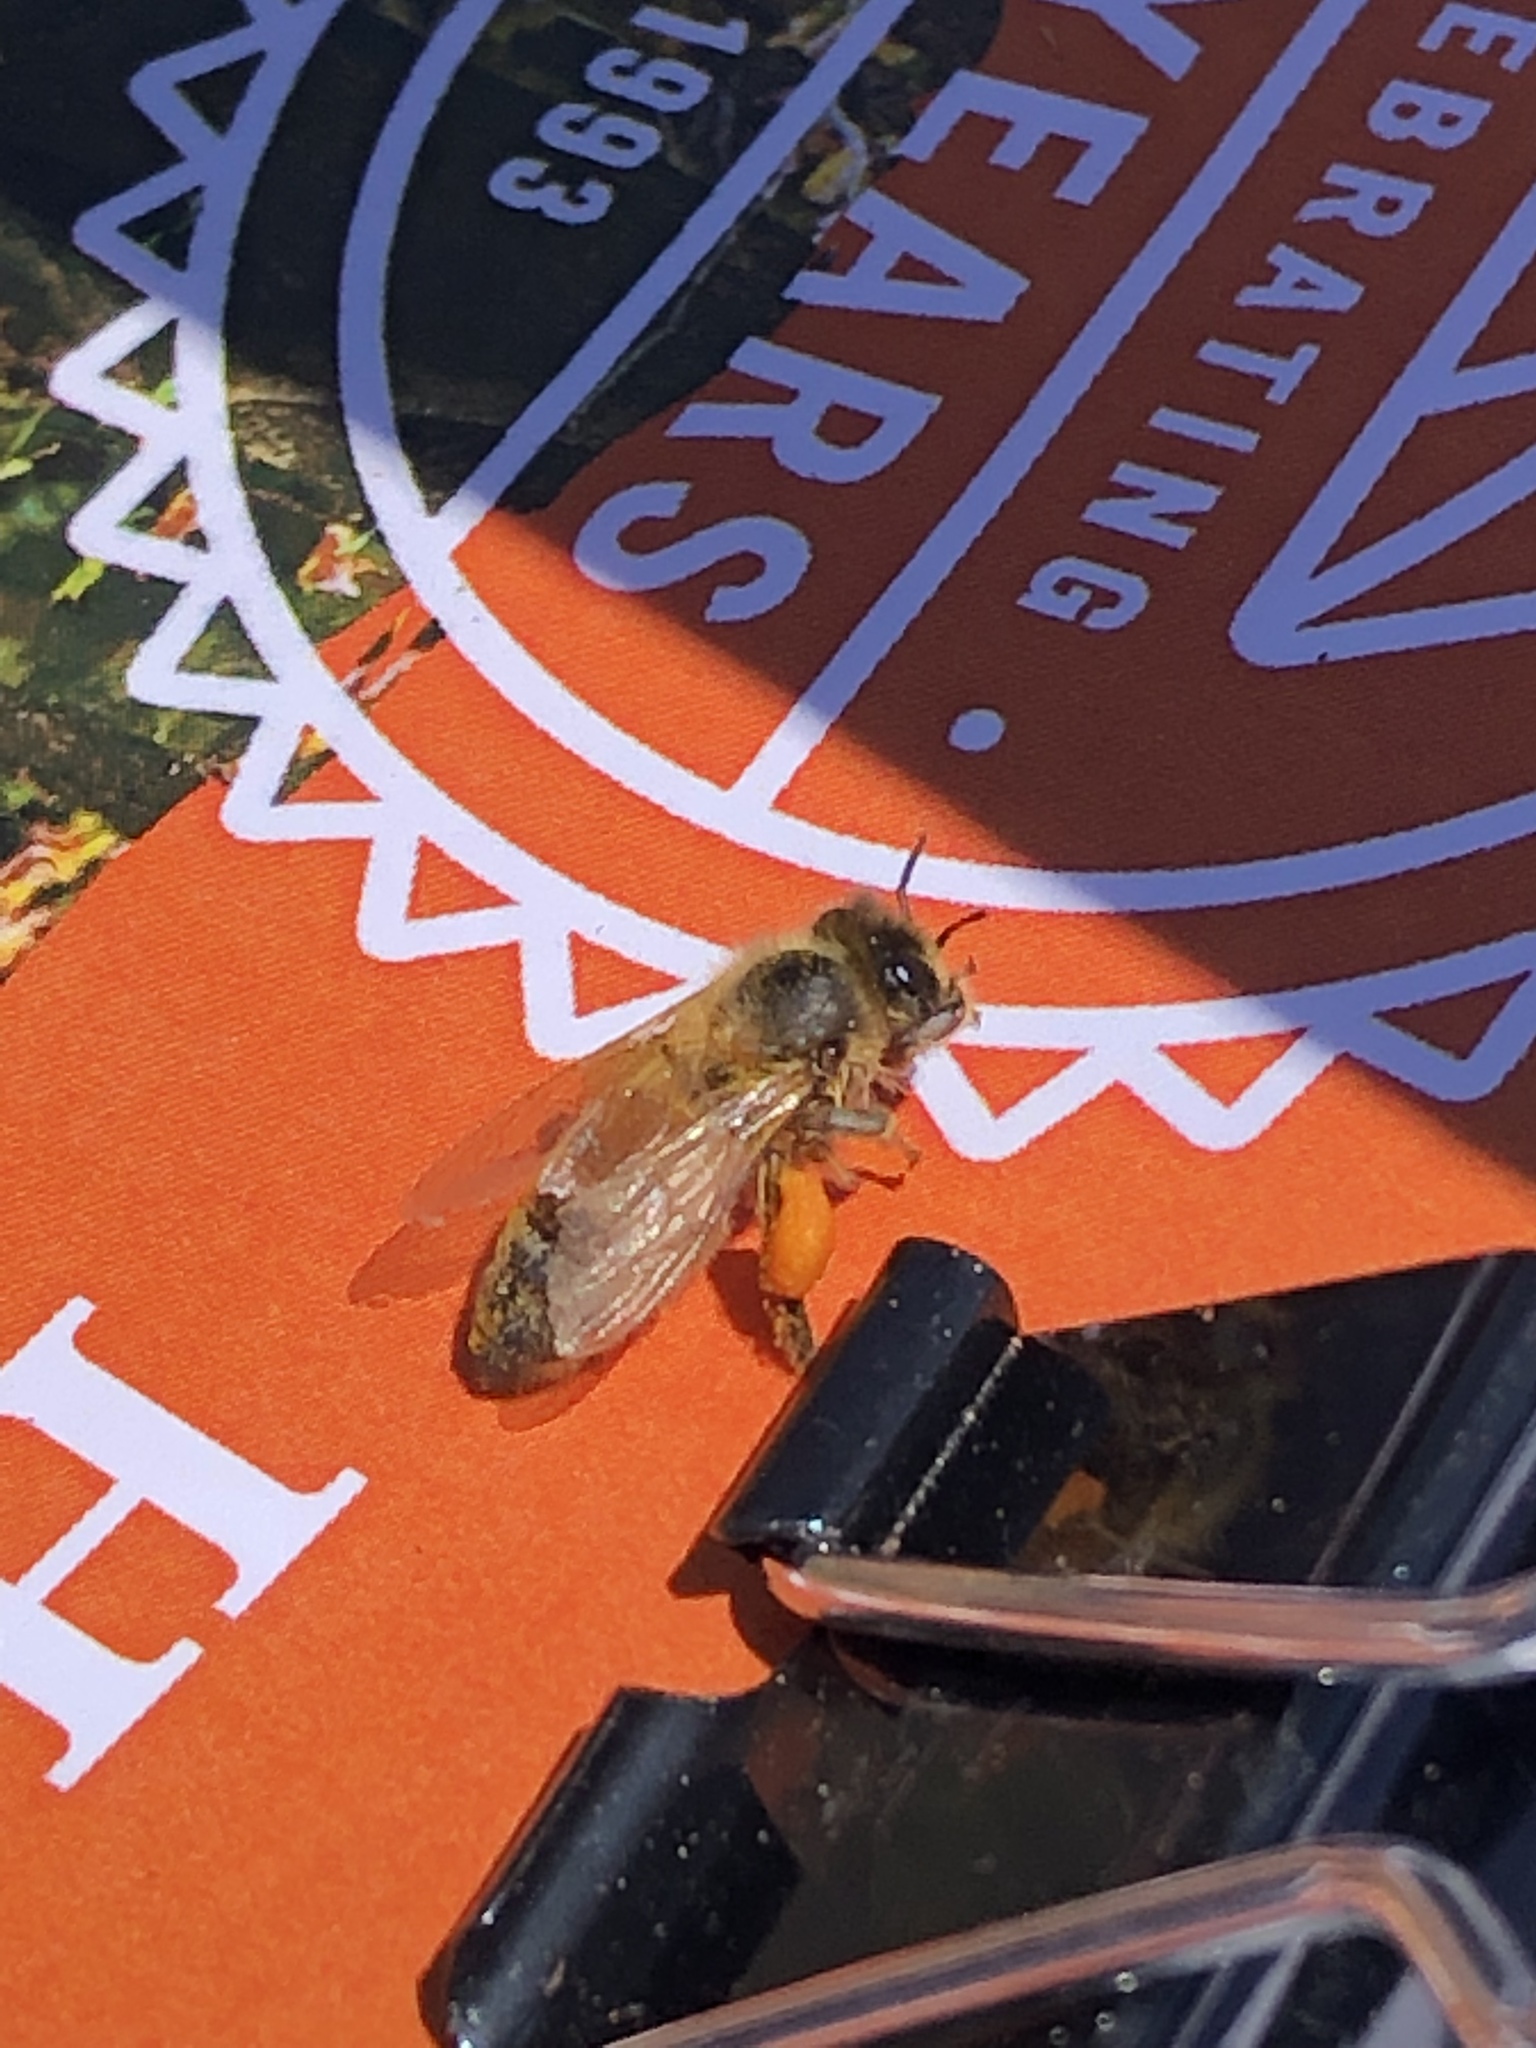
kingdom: Animalia
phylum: Arthropoda
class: Insecta
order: Hymenoptera
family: Apidae
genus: Apis
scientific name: Apis mellifera
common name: Honey bee
